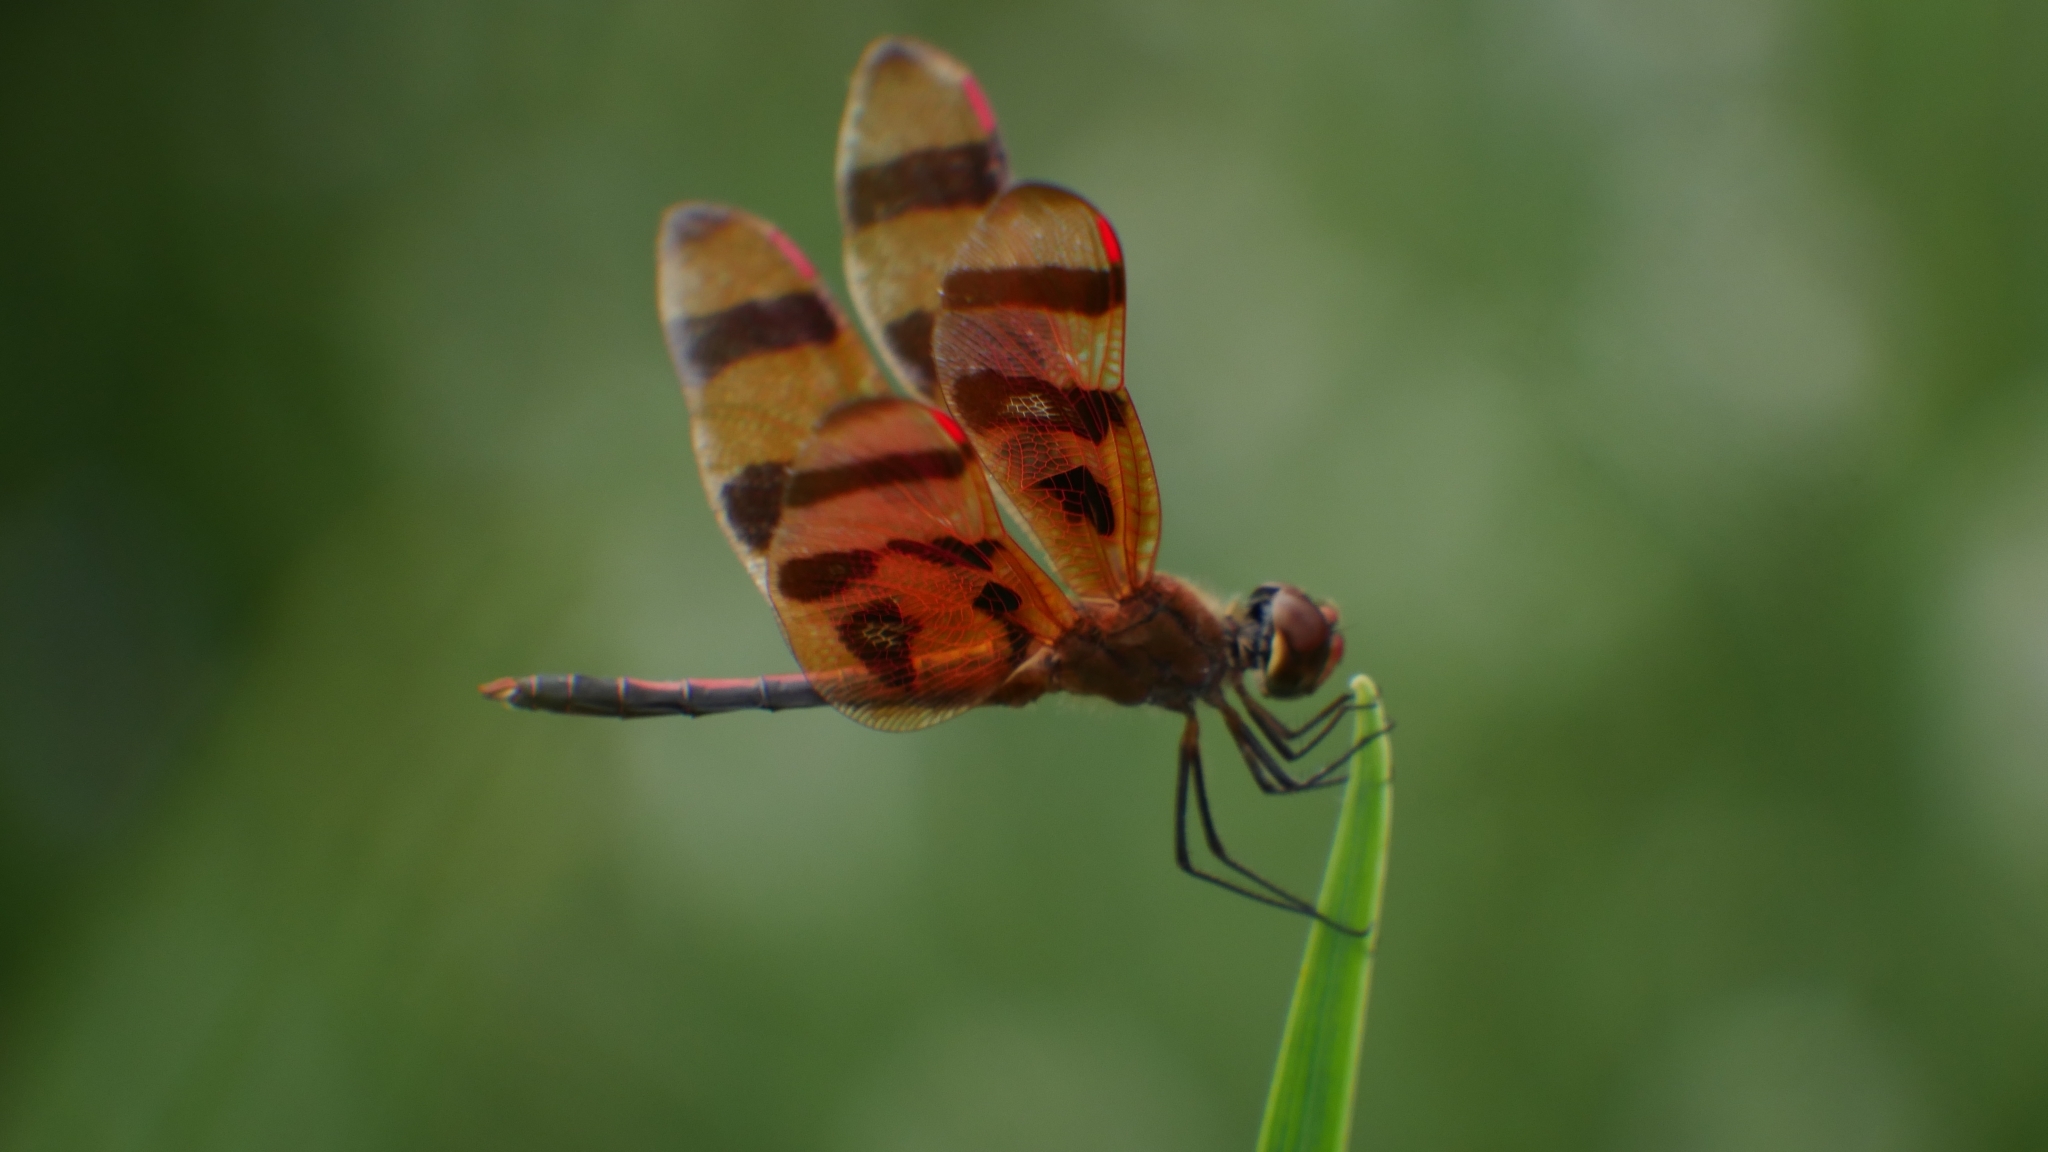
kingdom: Animalia
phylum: Arthropoda
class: Insecta
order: Odonata
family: Libellulidae
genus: Celithemis
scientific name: Celithemis eponina
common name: Halloween pennant
